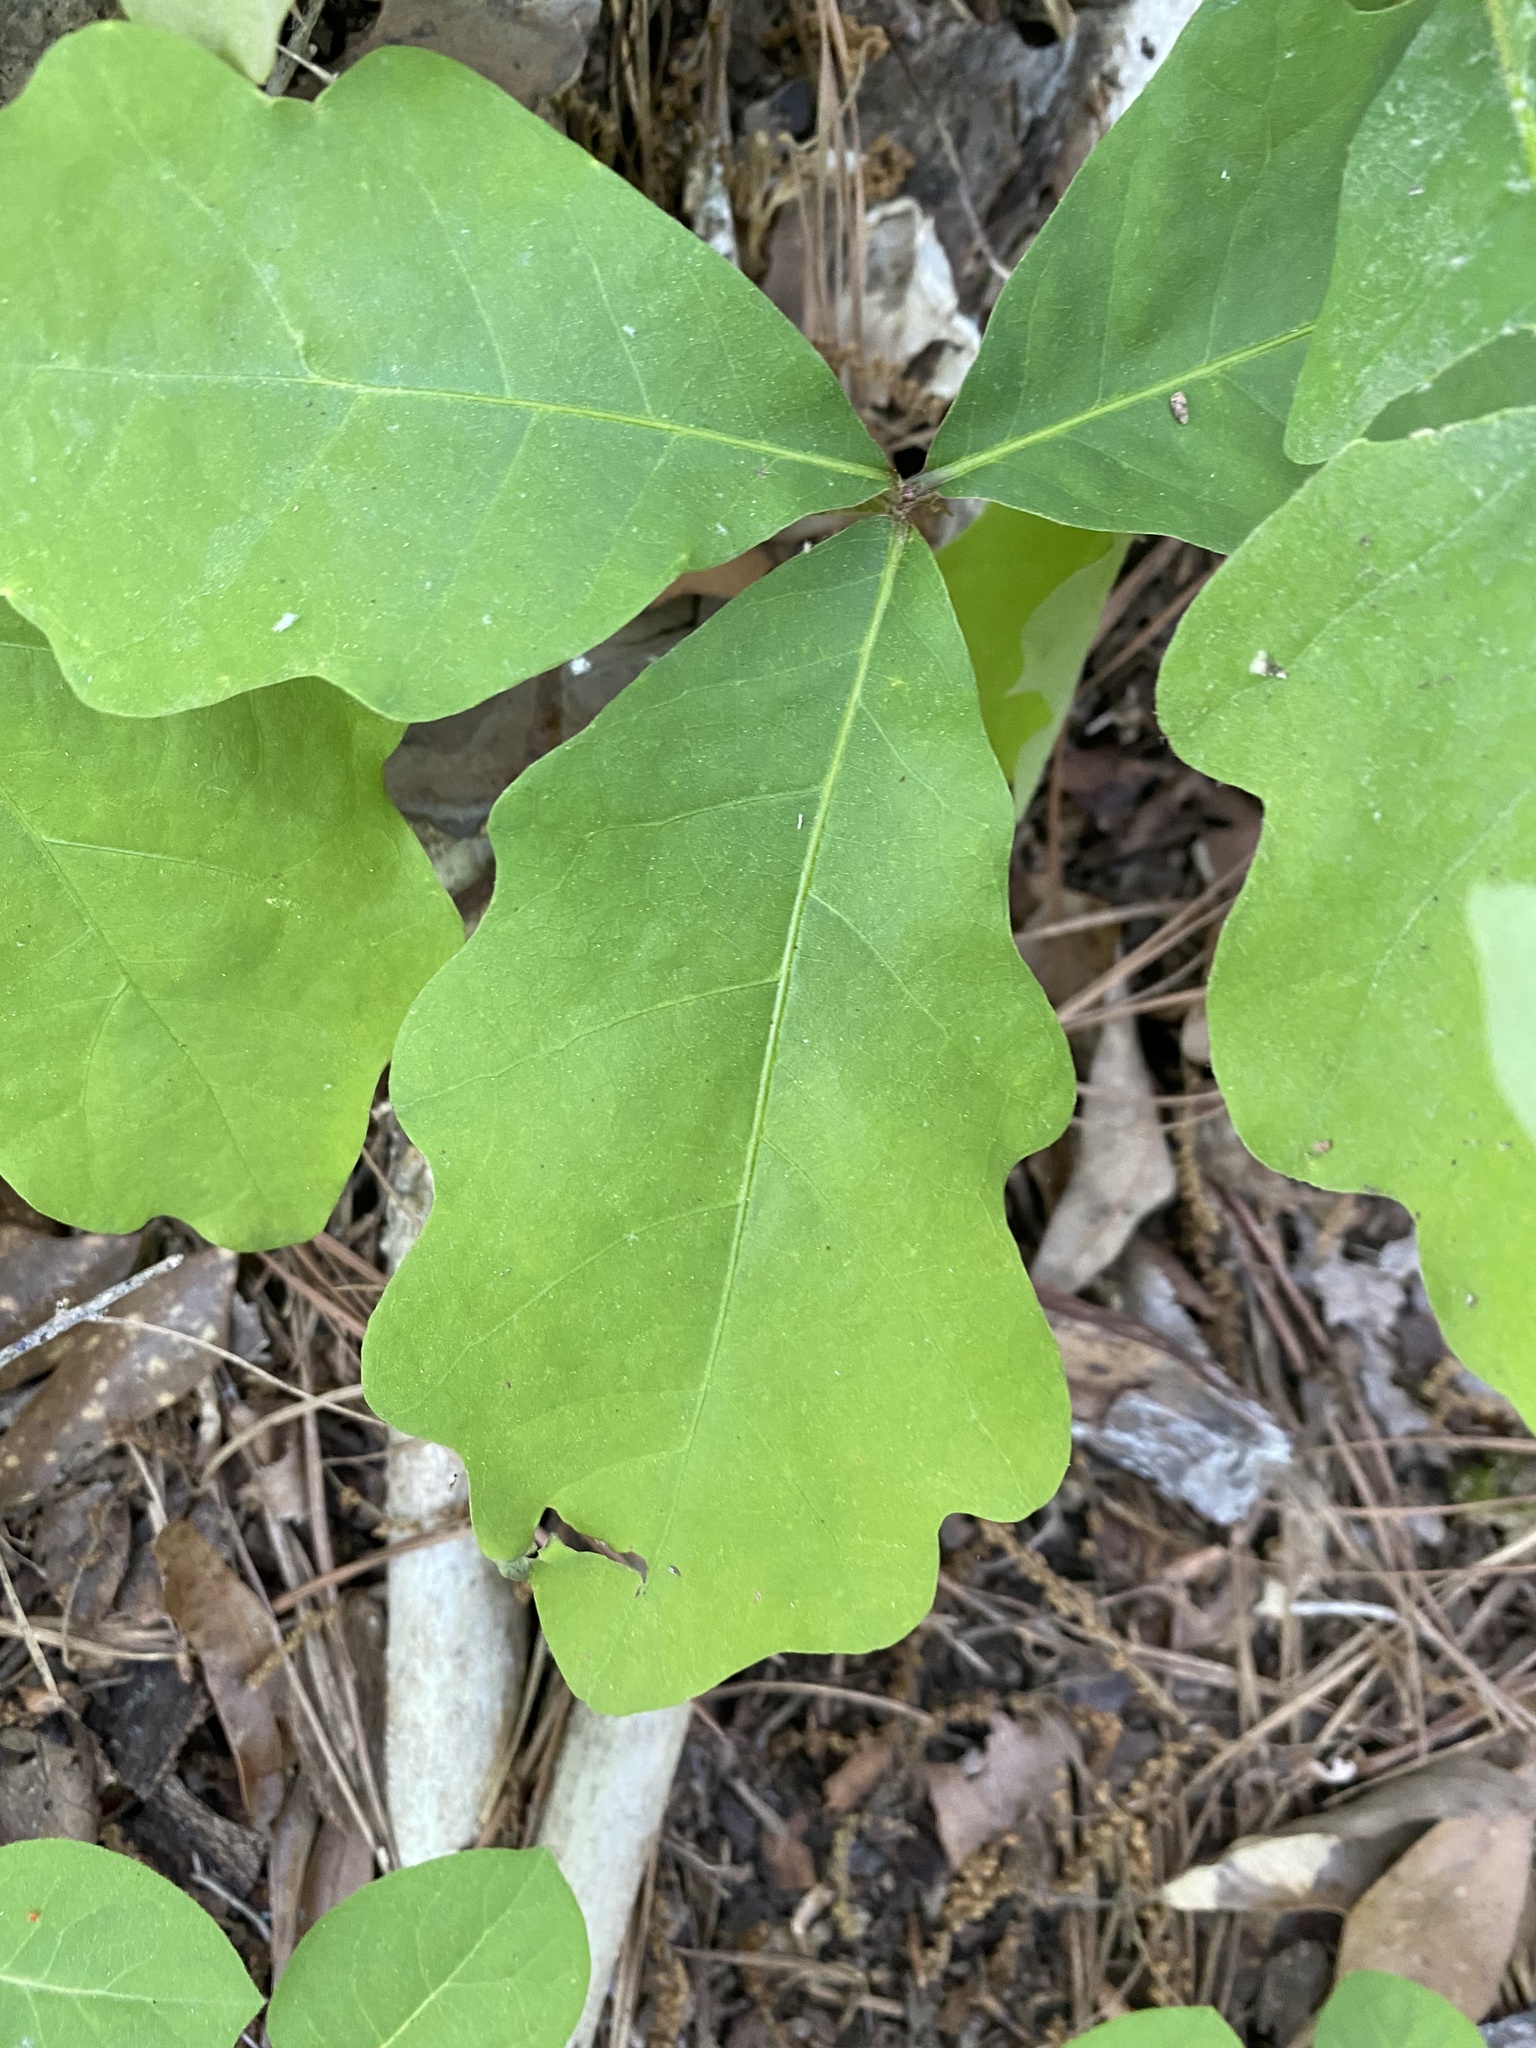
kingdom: Plantae
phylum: Tracheophyta
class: Magnoliopsida
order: Fagales
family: Fagaceae
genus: Quercus
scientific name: Quercus alba
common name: White oak
